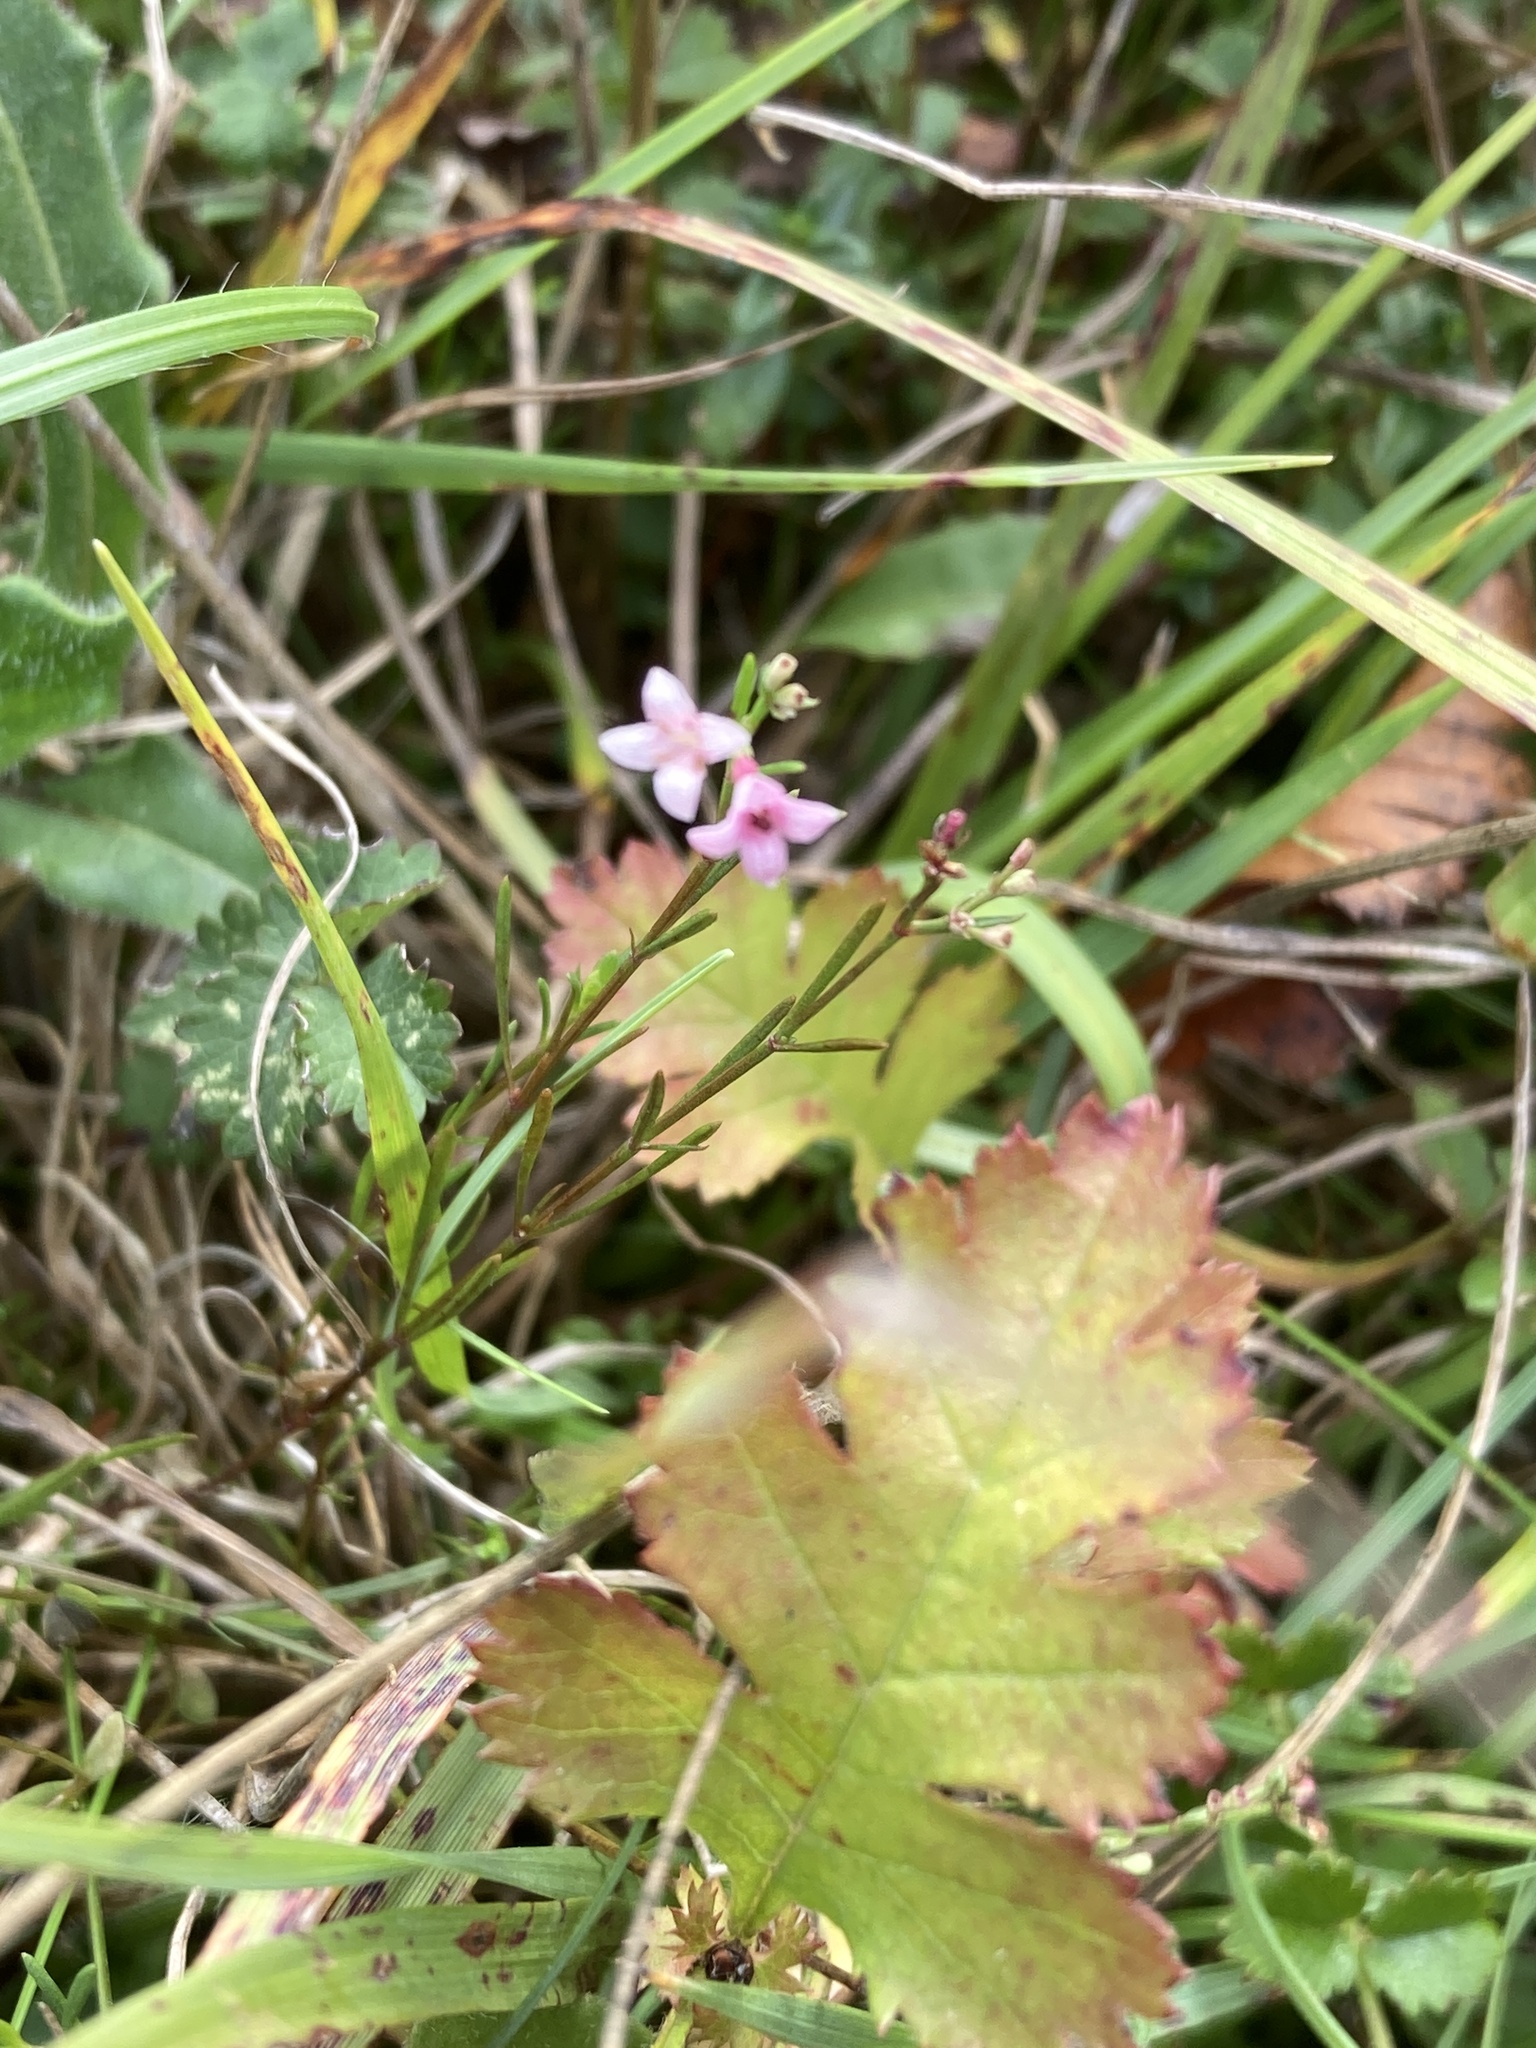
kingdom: Plantae
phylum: Tracheophyta
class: Magnoliopsida
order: Gentianales
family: Rubiaceae
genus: Cynanchica
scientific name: Cynanchica pyrenaica
